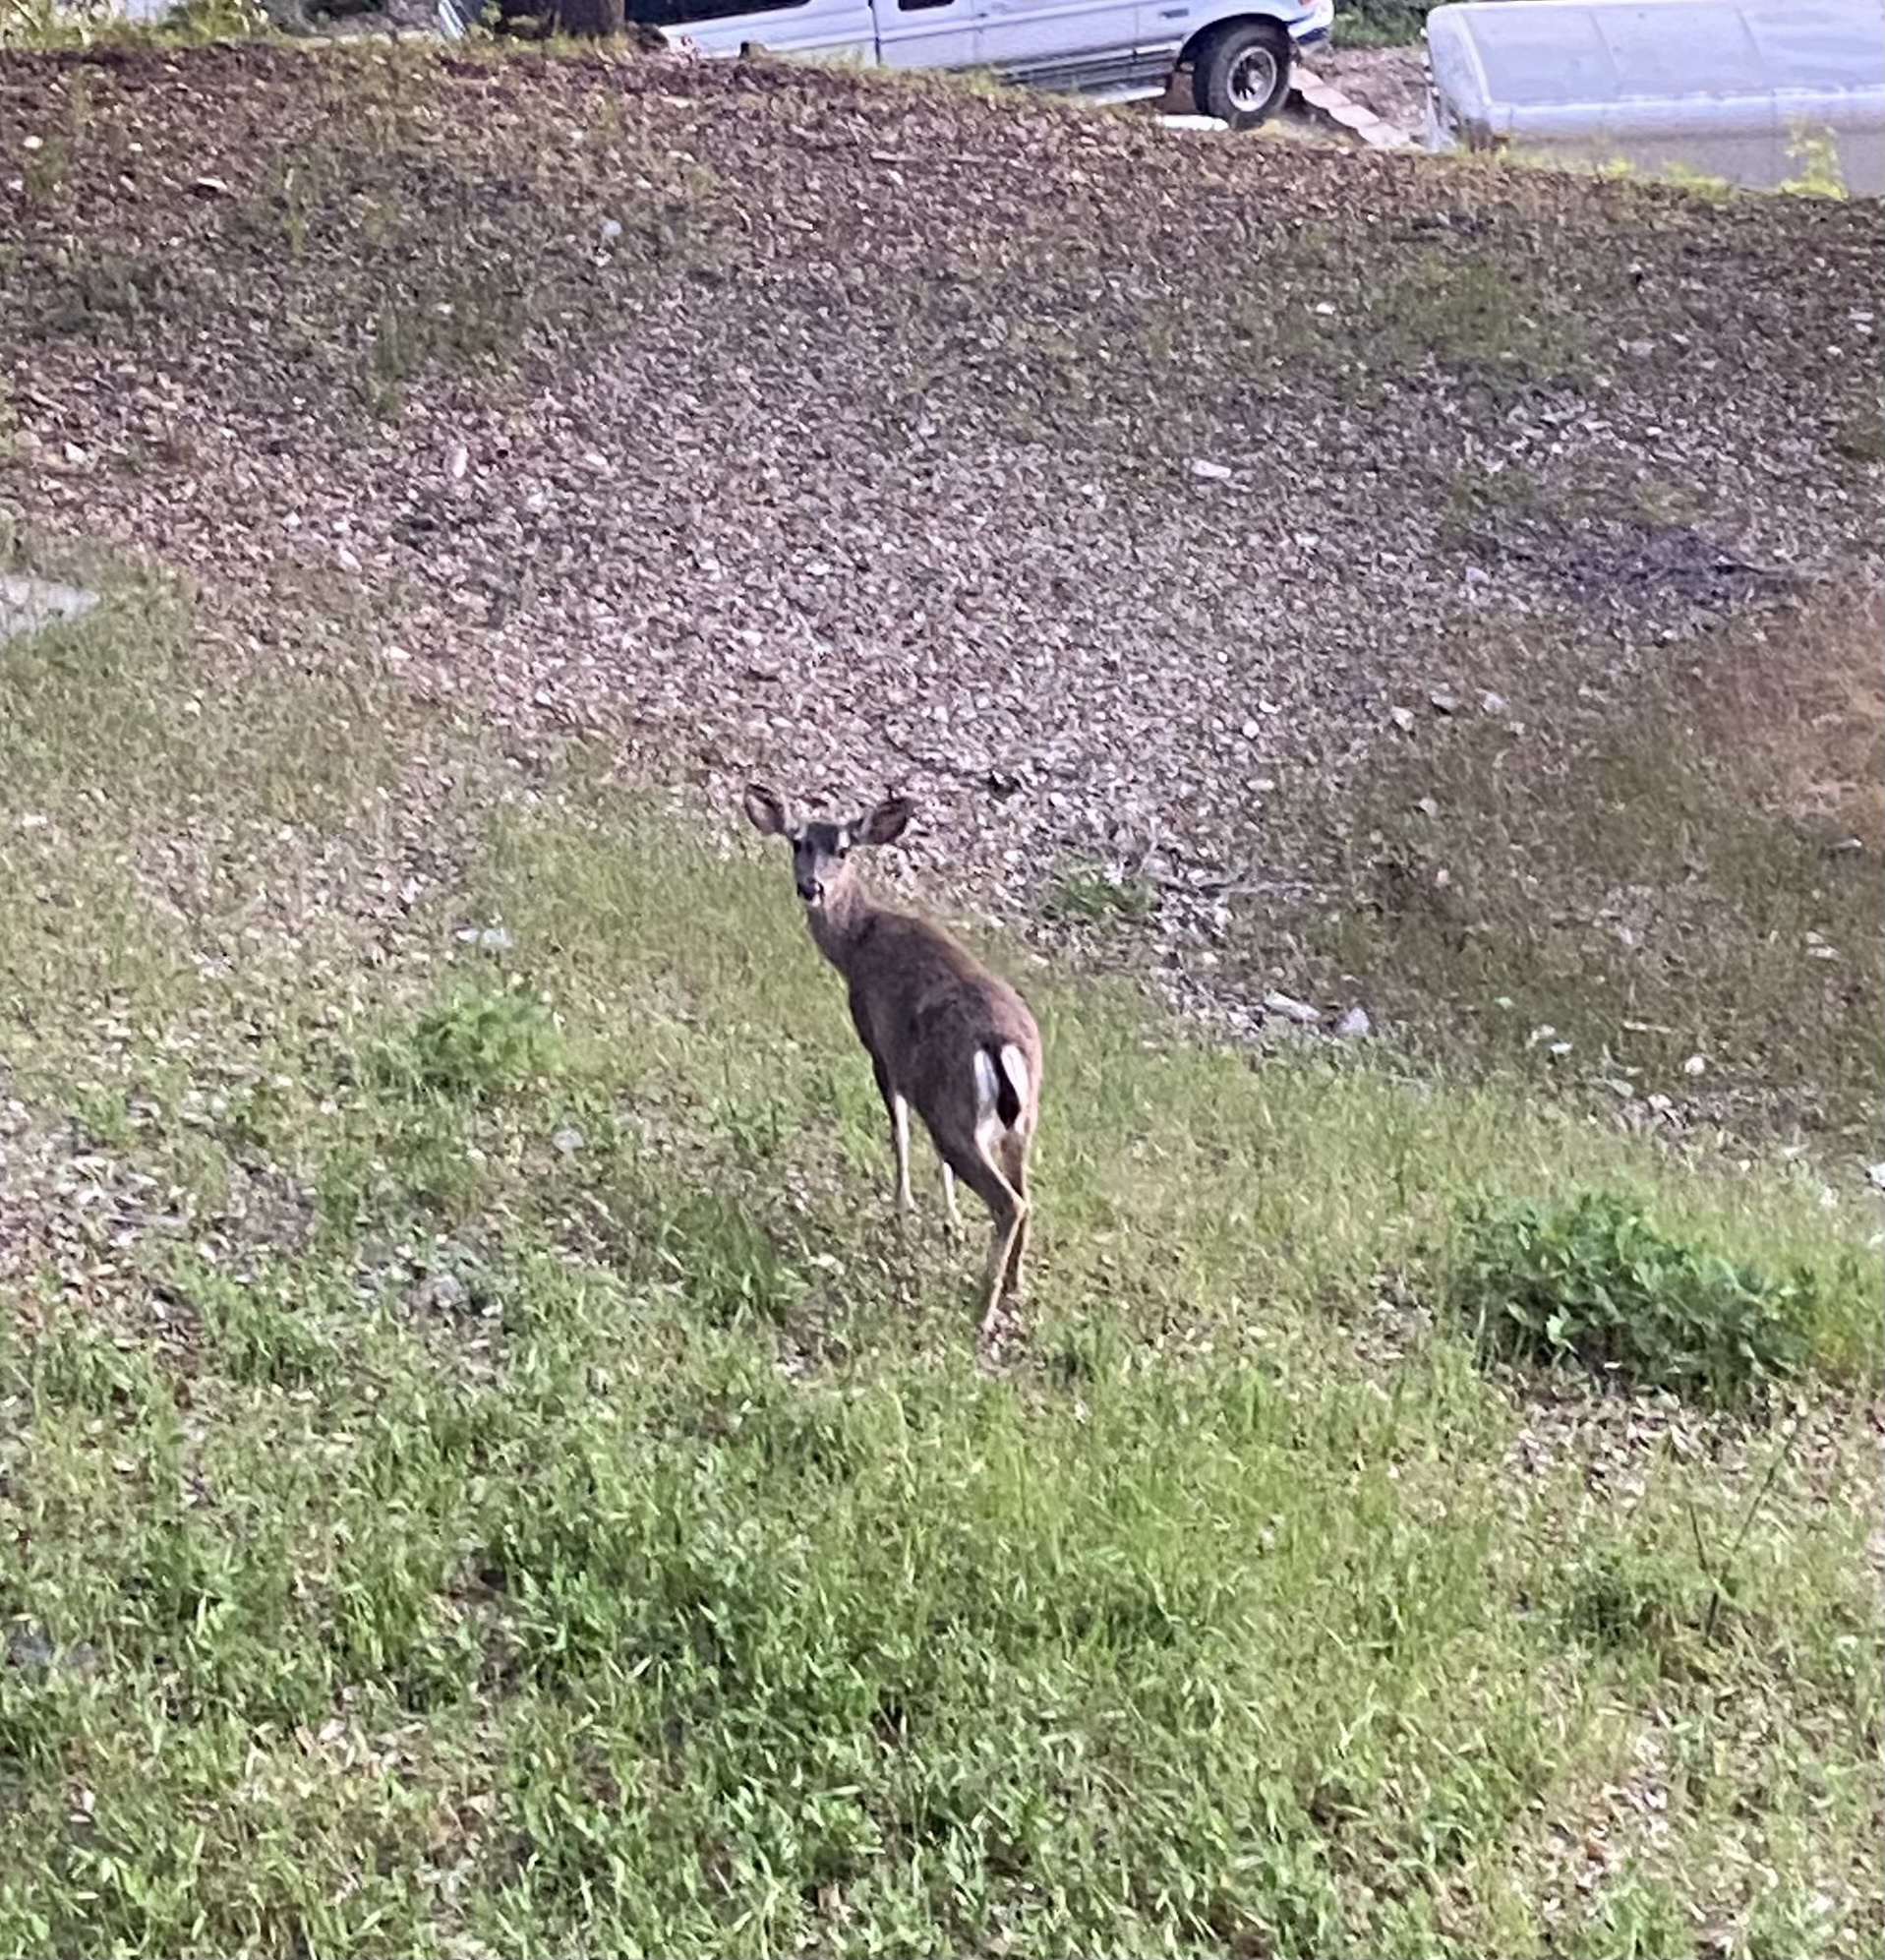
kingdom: Animalia
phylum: Chordata
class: Mammalia
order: Artiodactyla
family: Cervidae
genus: Odocoileus
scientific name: Odocoileus hemionus
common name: Mule deer
